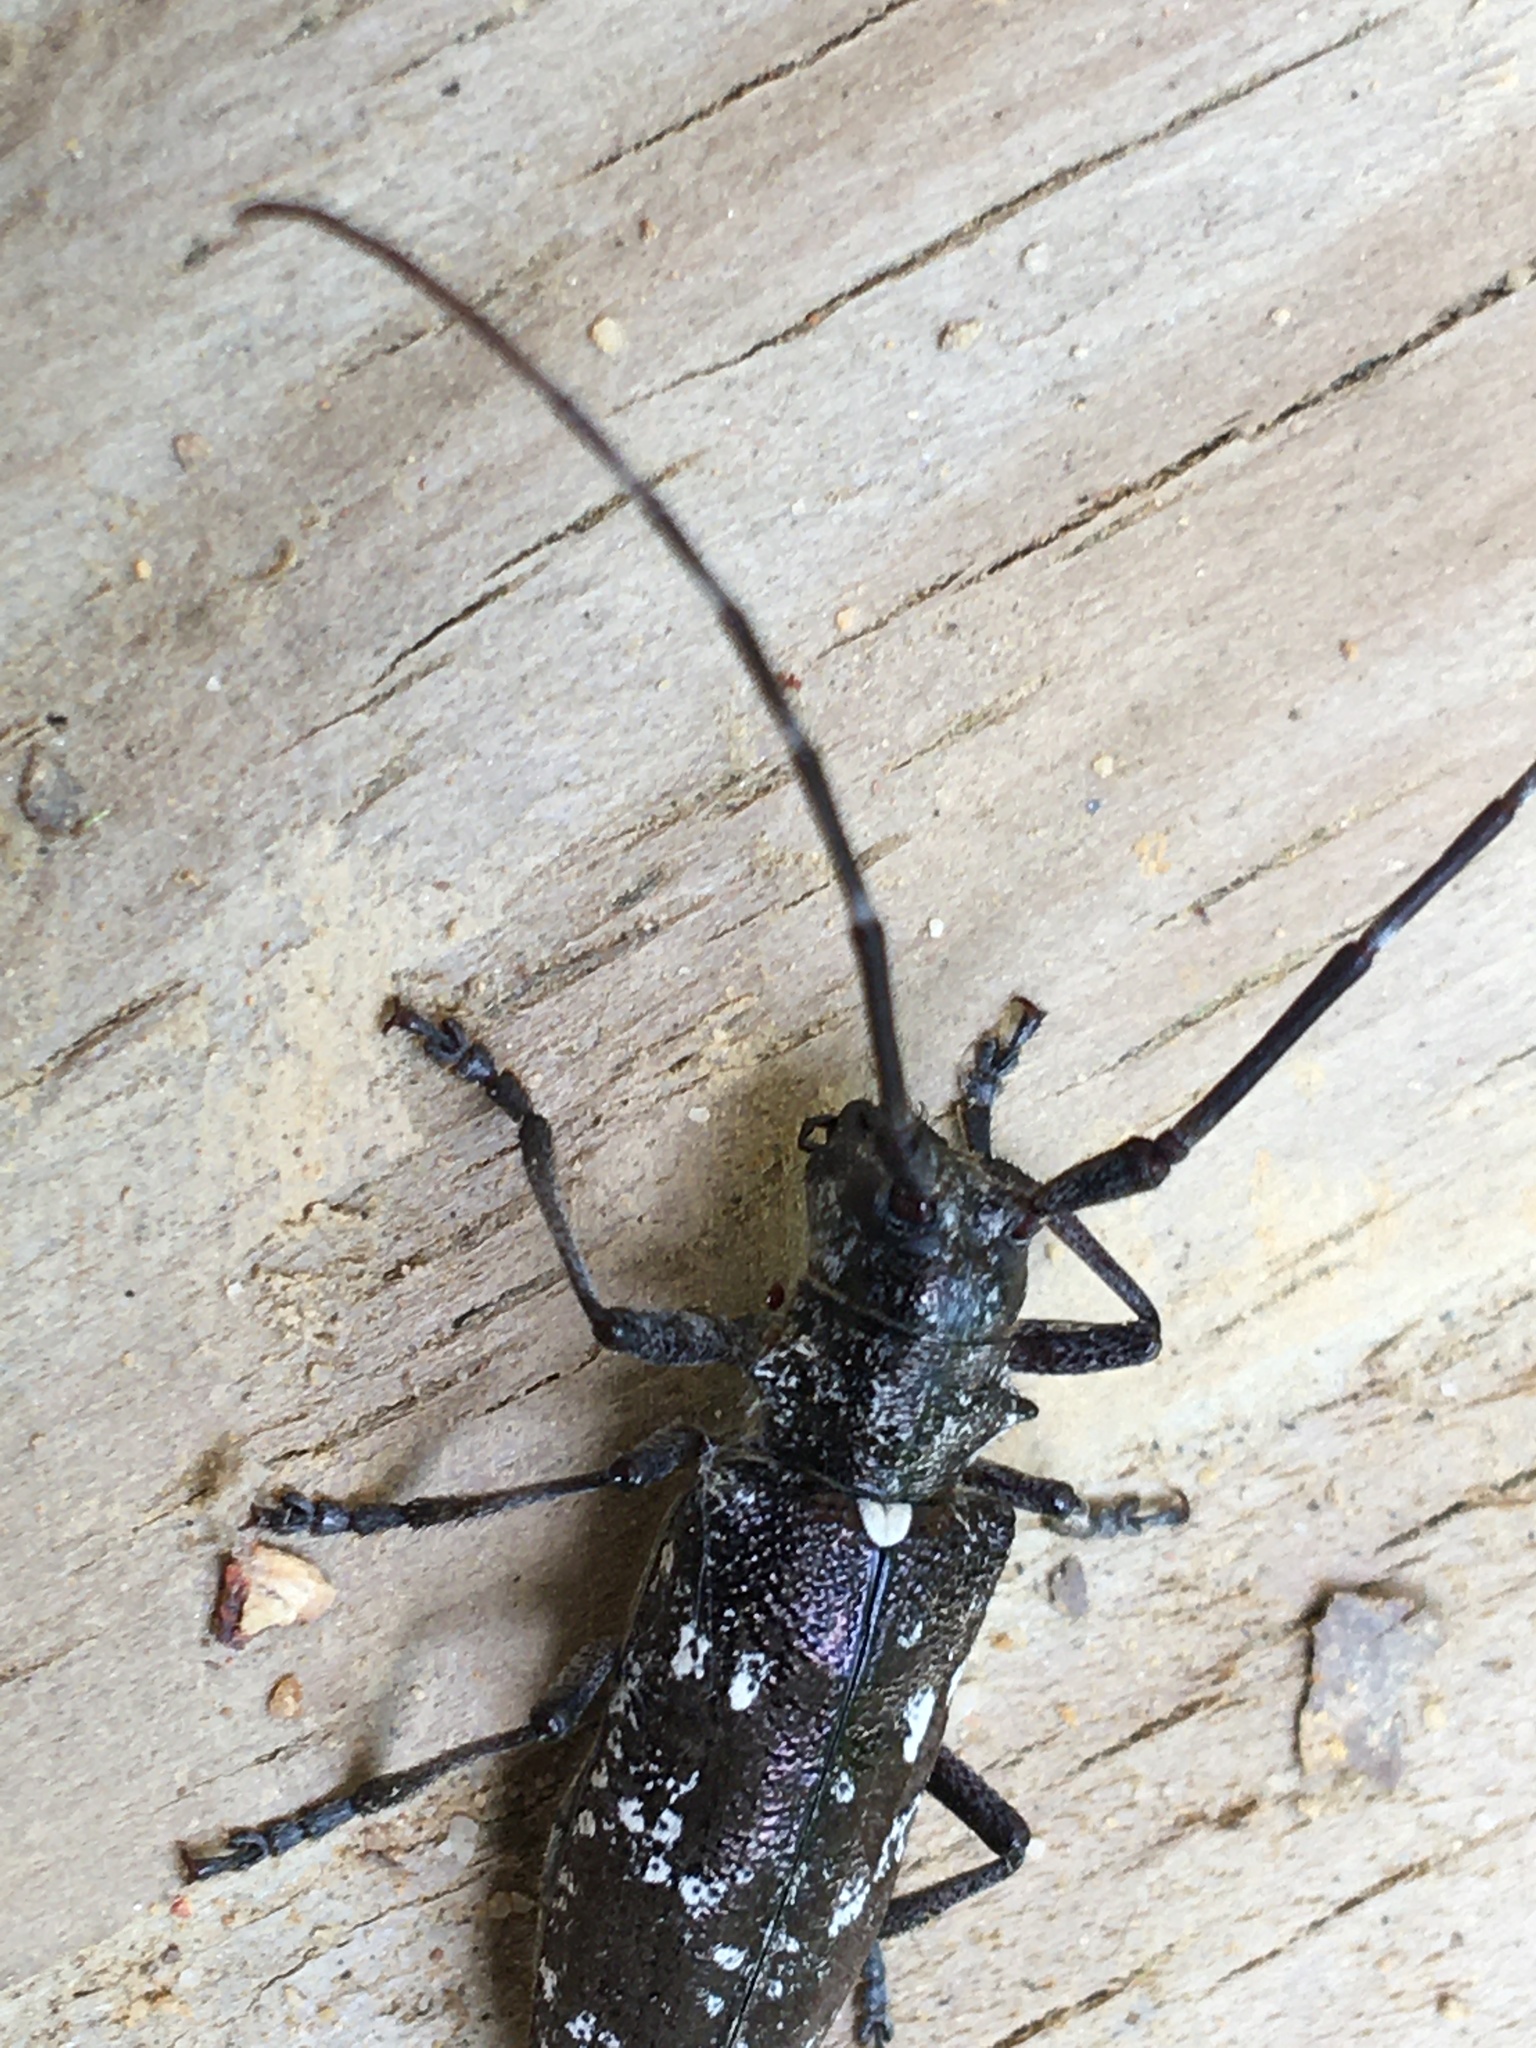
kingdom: Animalia
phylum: Arthropoda
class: Insecta
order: Coleoptera
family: Cerambycidae
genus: Monochamus
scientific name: Monochamus scutellatus
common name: White-spotted sawyer beetle
